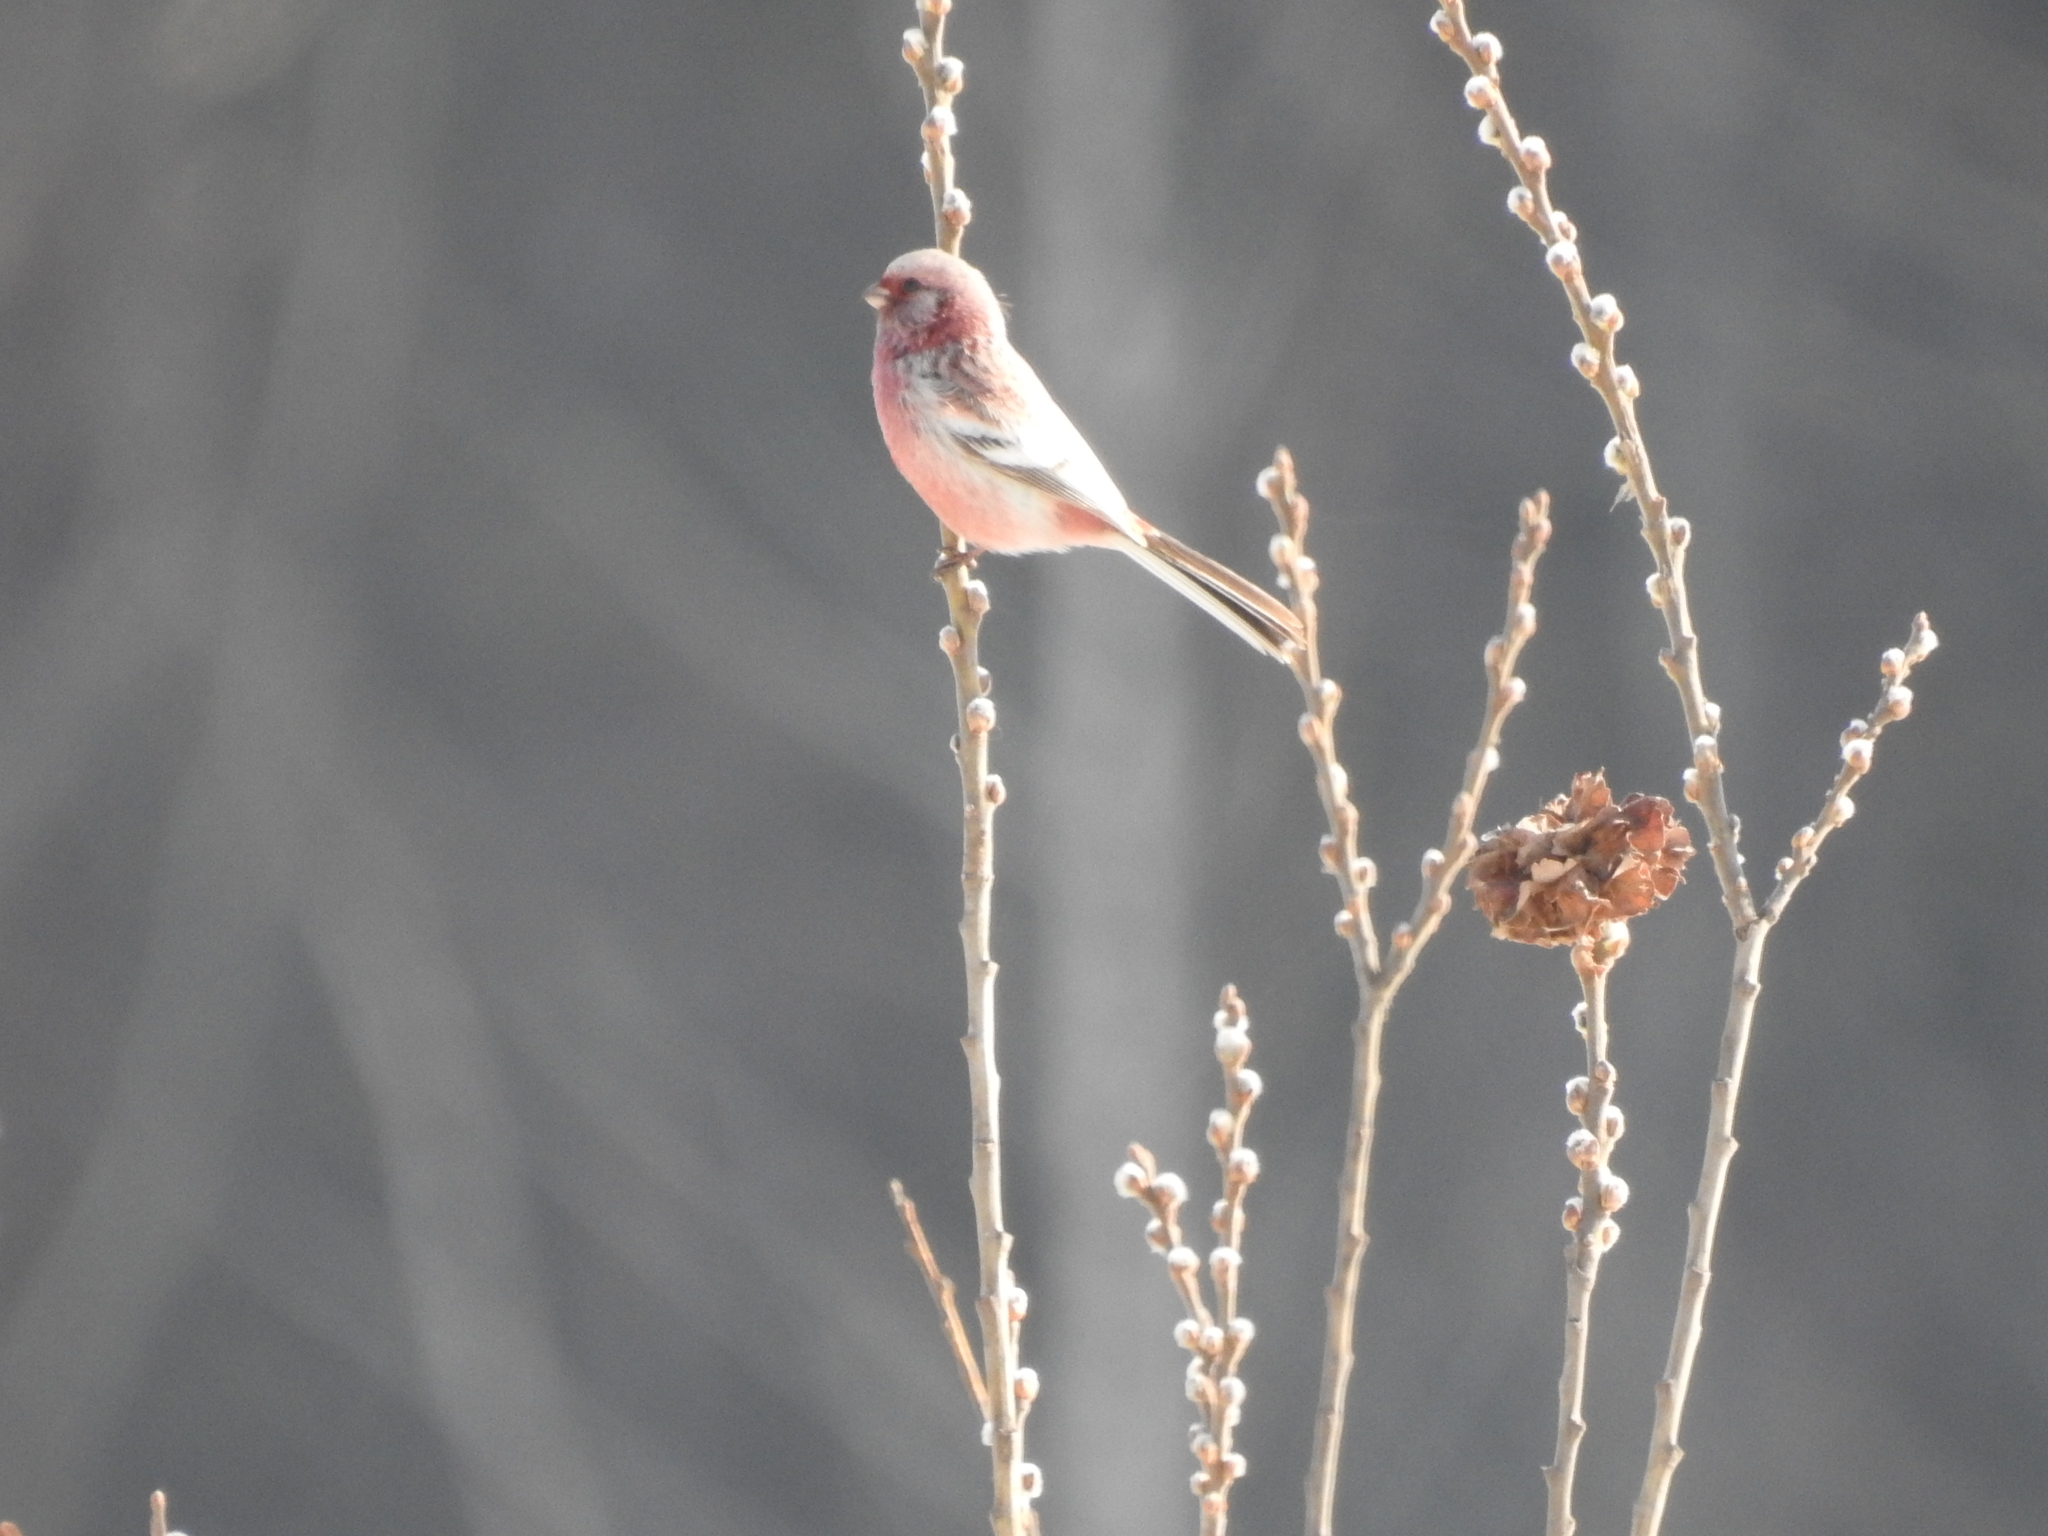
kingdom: Animalia
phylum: Chordata
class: Aves
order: Passeriformes
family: Fringillidae
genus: Carpodacus
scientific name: Carpodacus sibiricus
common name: Long-tailed rosefinch
